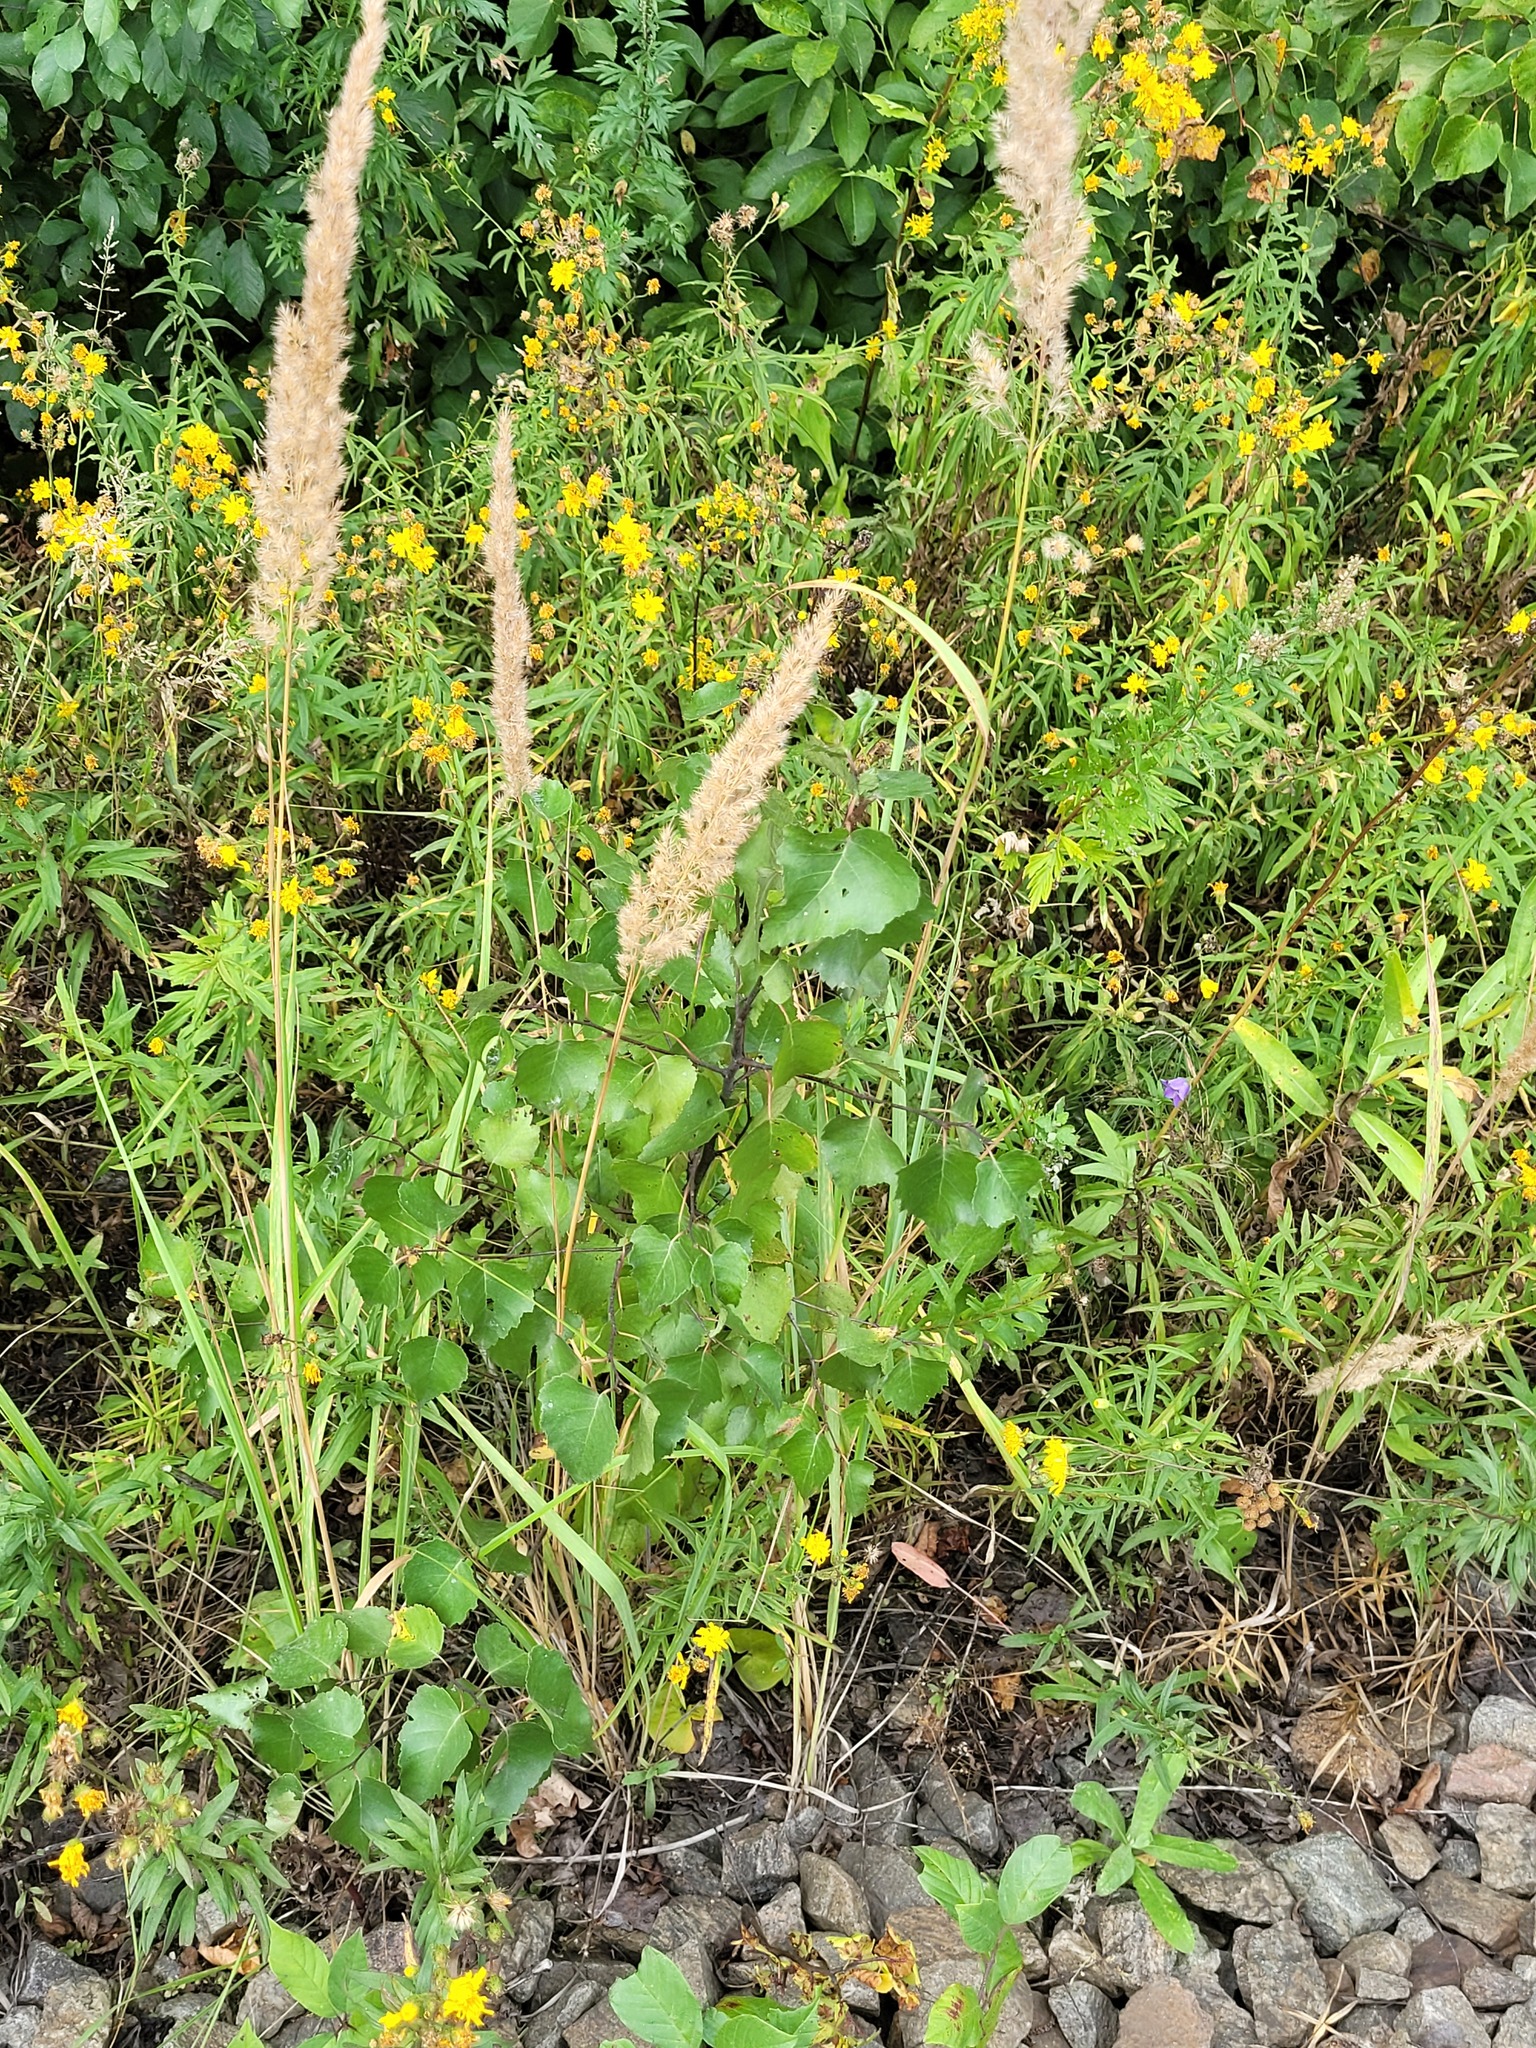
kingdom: Plantae
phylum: Tracheophyta
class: Magnoliopsida
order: Fagales
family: Betulaceae
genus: Betula
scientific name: Betula pendula
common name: Silver birch
